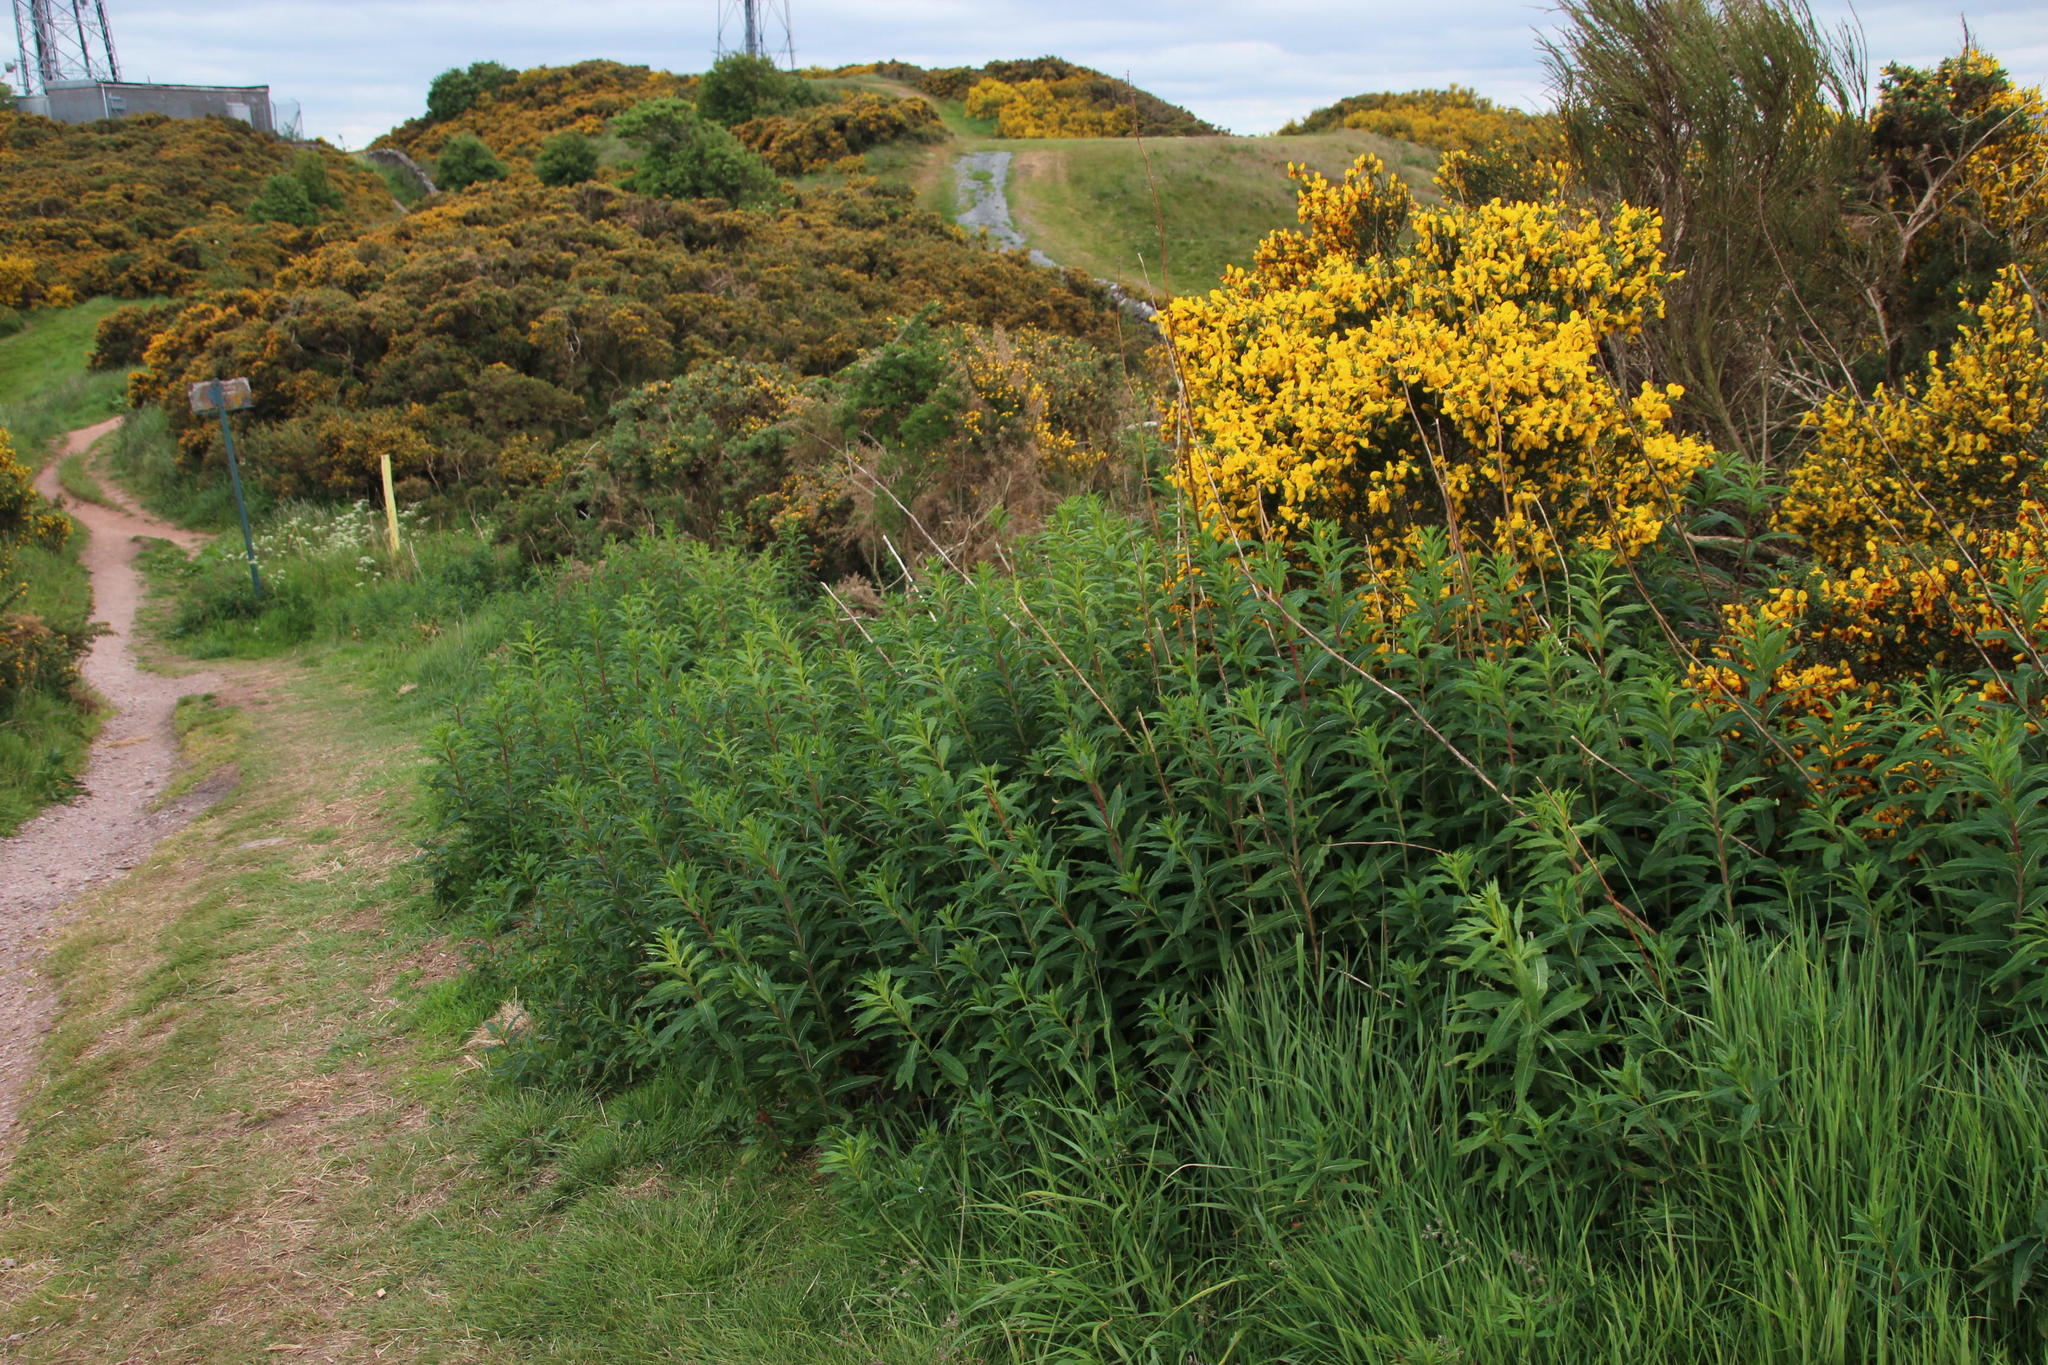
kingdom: Plantae
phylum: Tracheophyta
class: Magnoliopsida
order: Myrtales
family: Onagraceae
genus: Chamaenerion
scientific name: Chamaenerion angustifolium
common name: Fireweed
